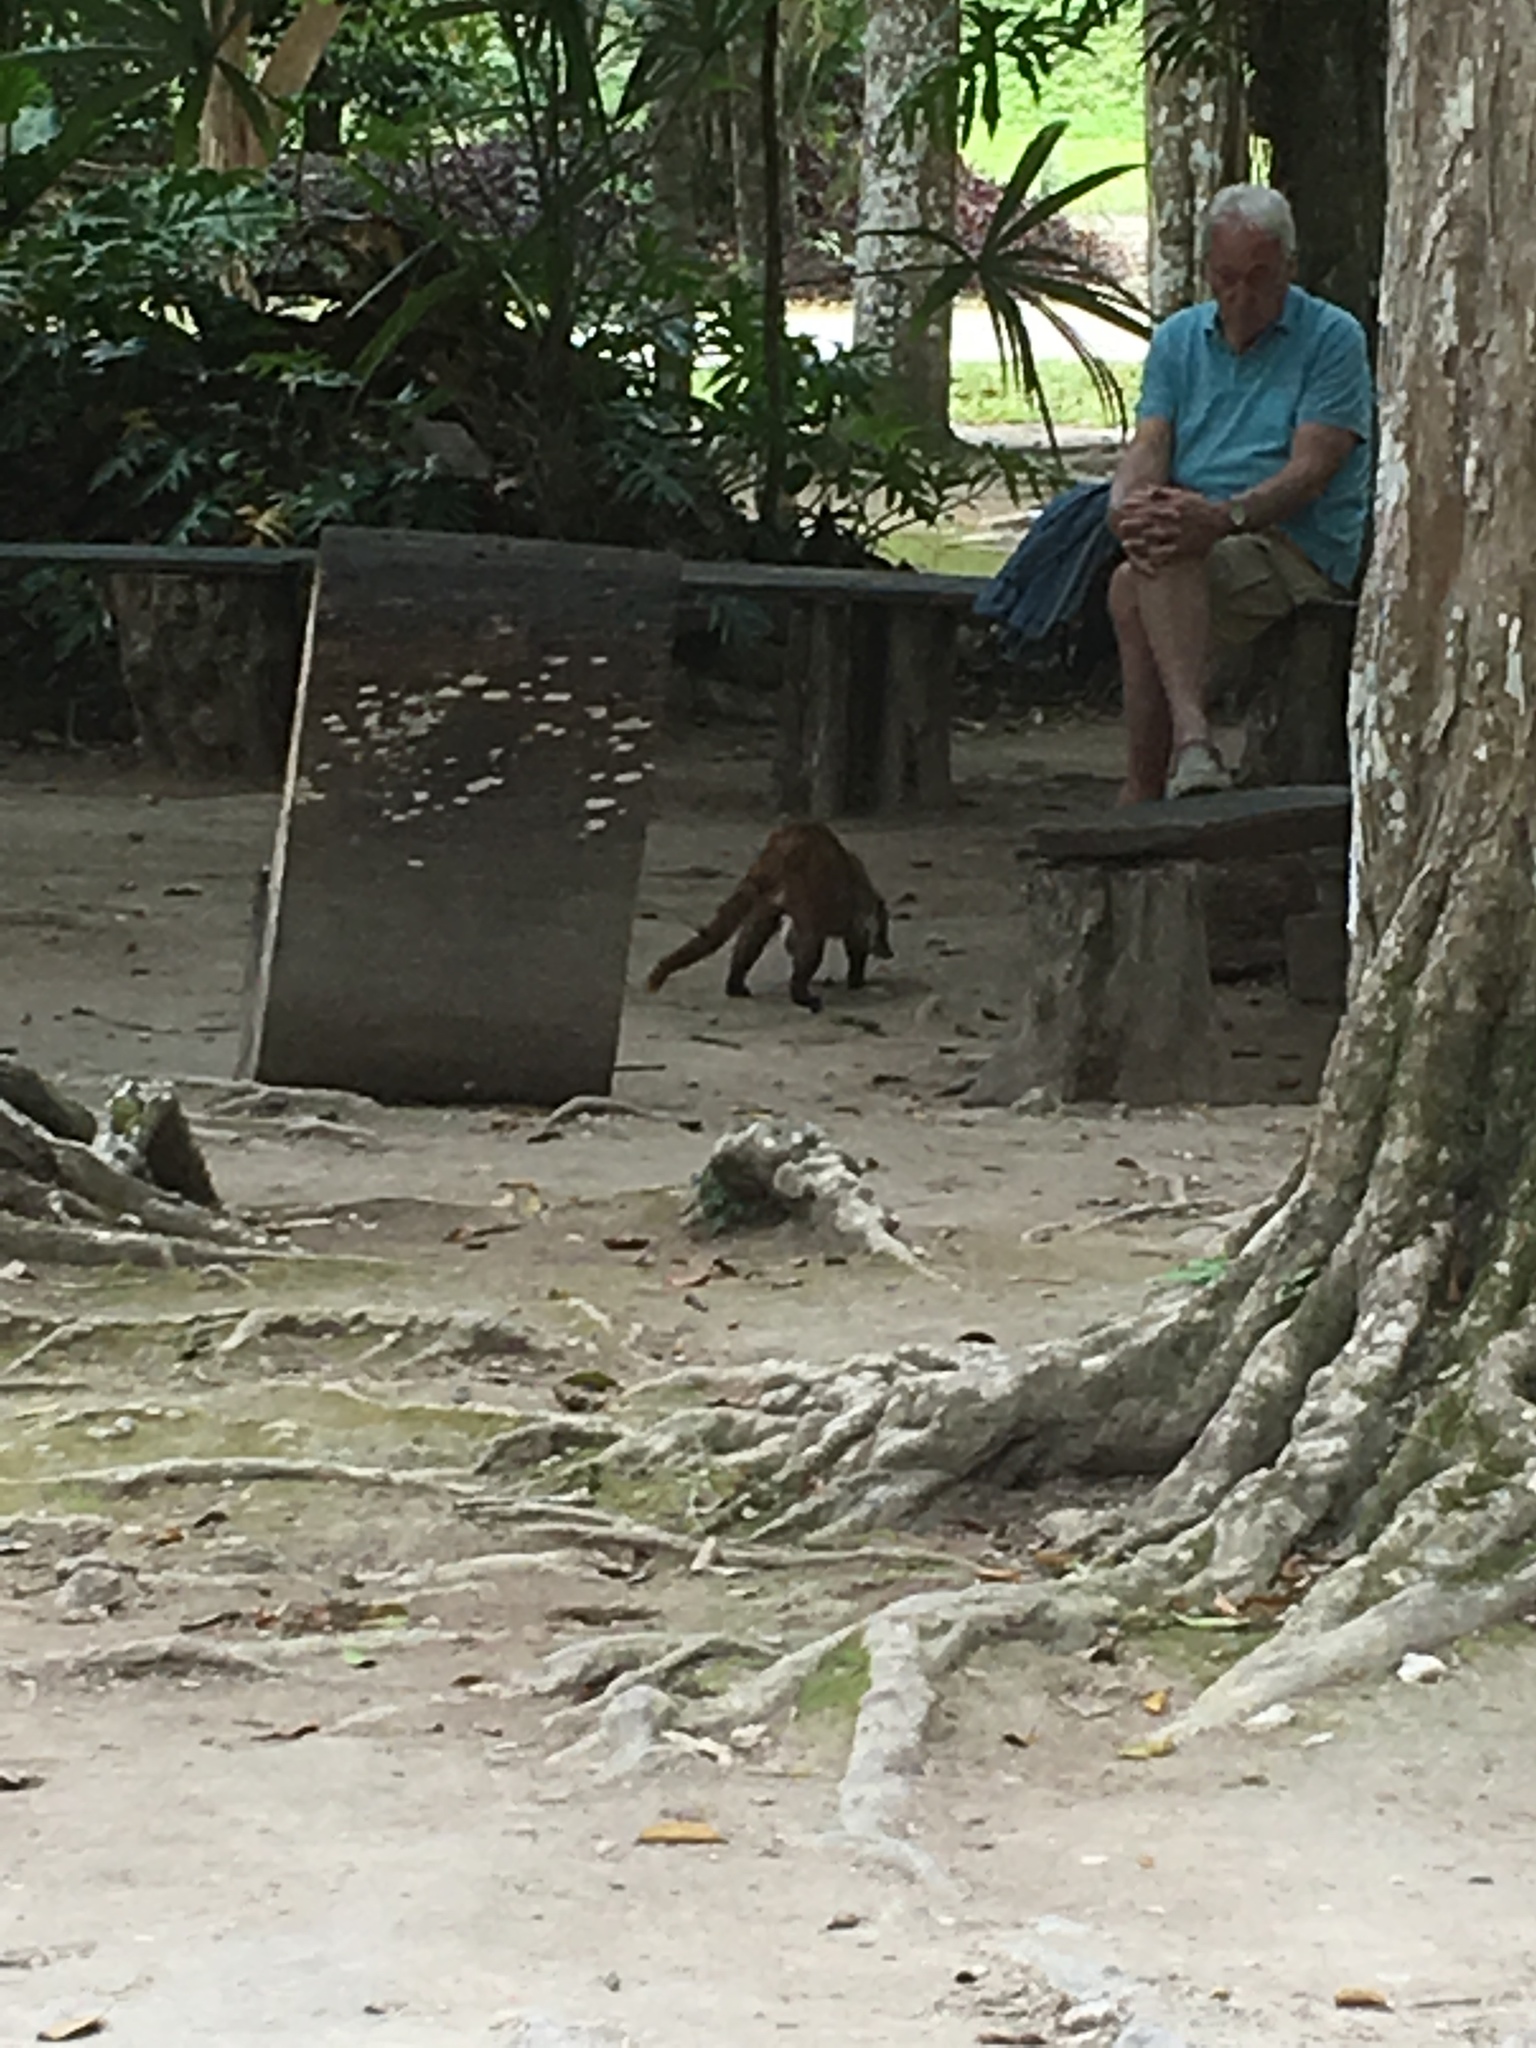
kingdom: Animalia
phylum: Chordata
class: Mammalia
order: Carnivora
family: Procyonidae
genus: Nasua
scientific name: Nasua narica
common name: White-nosed coati
